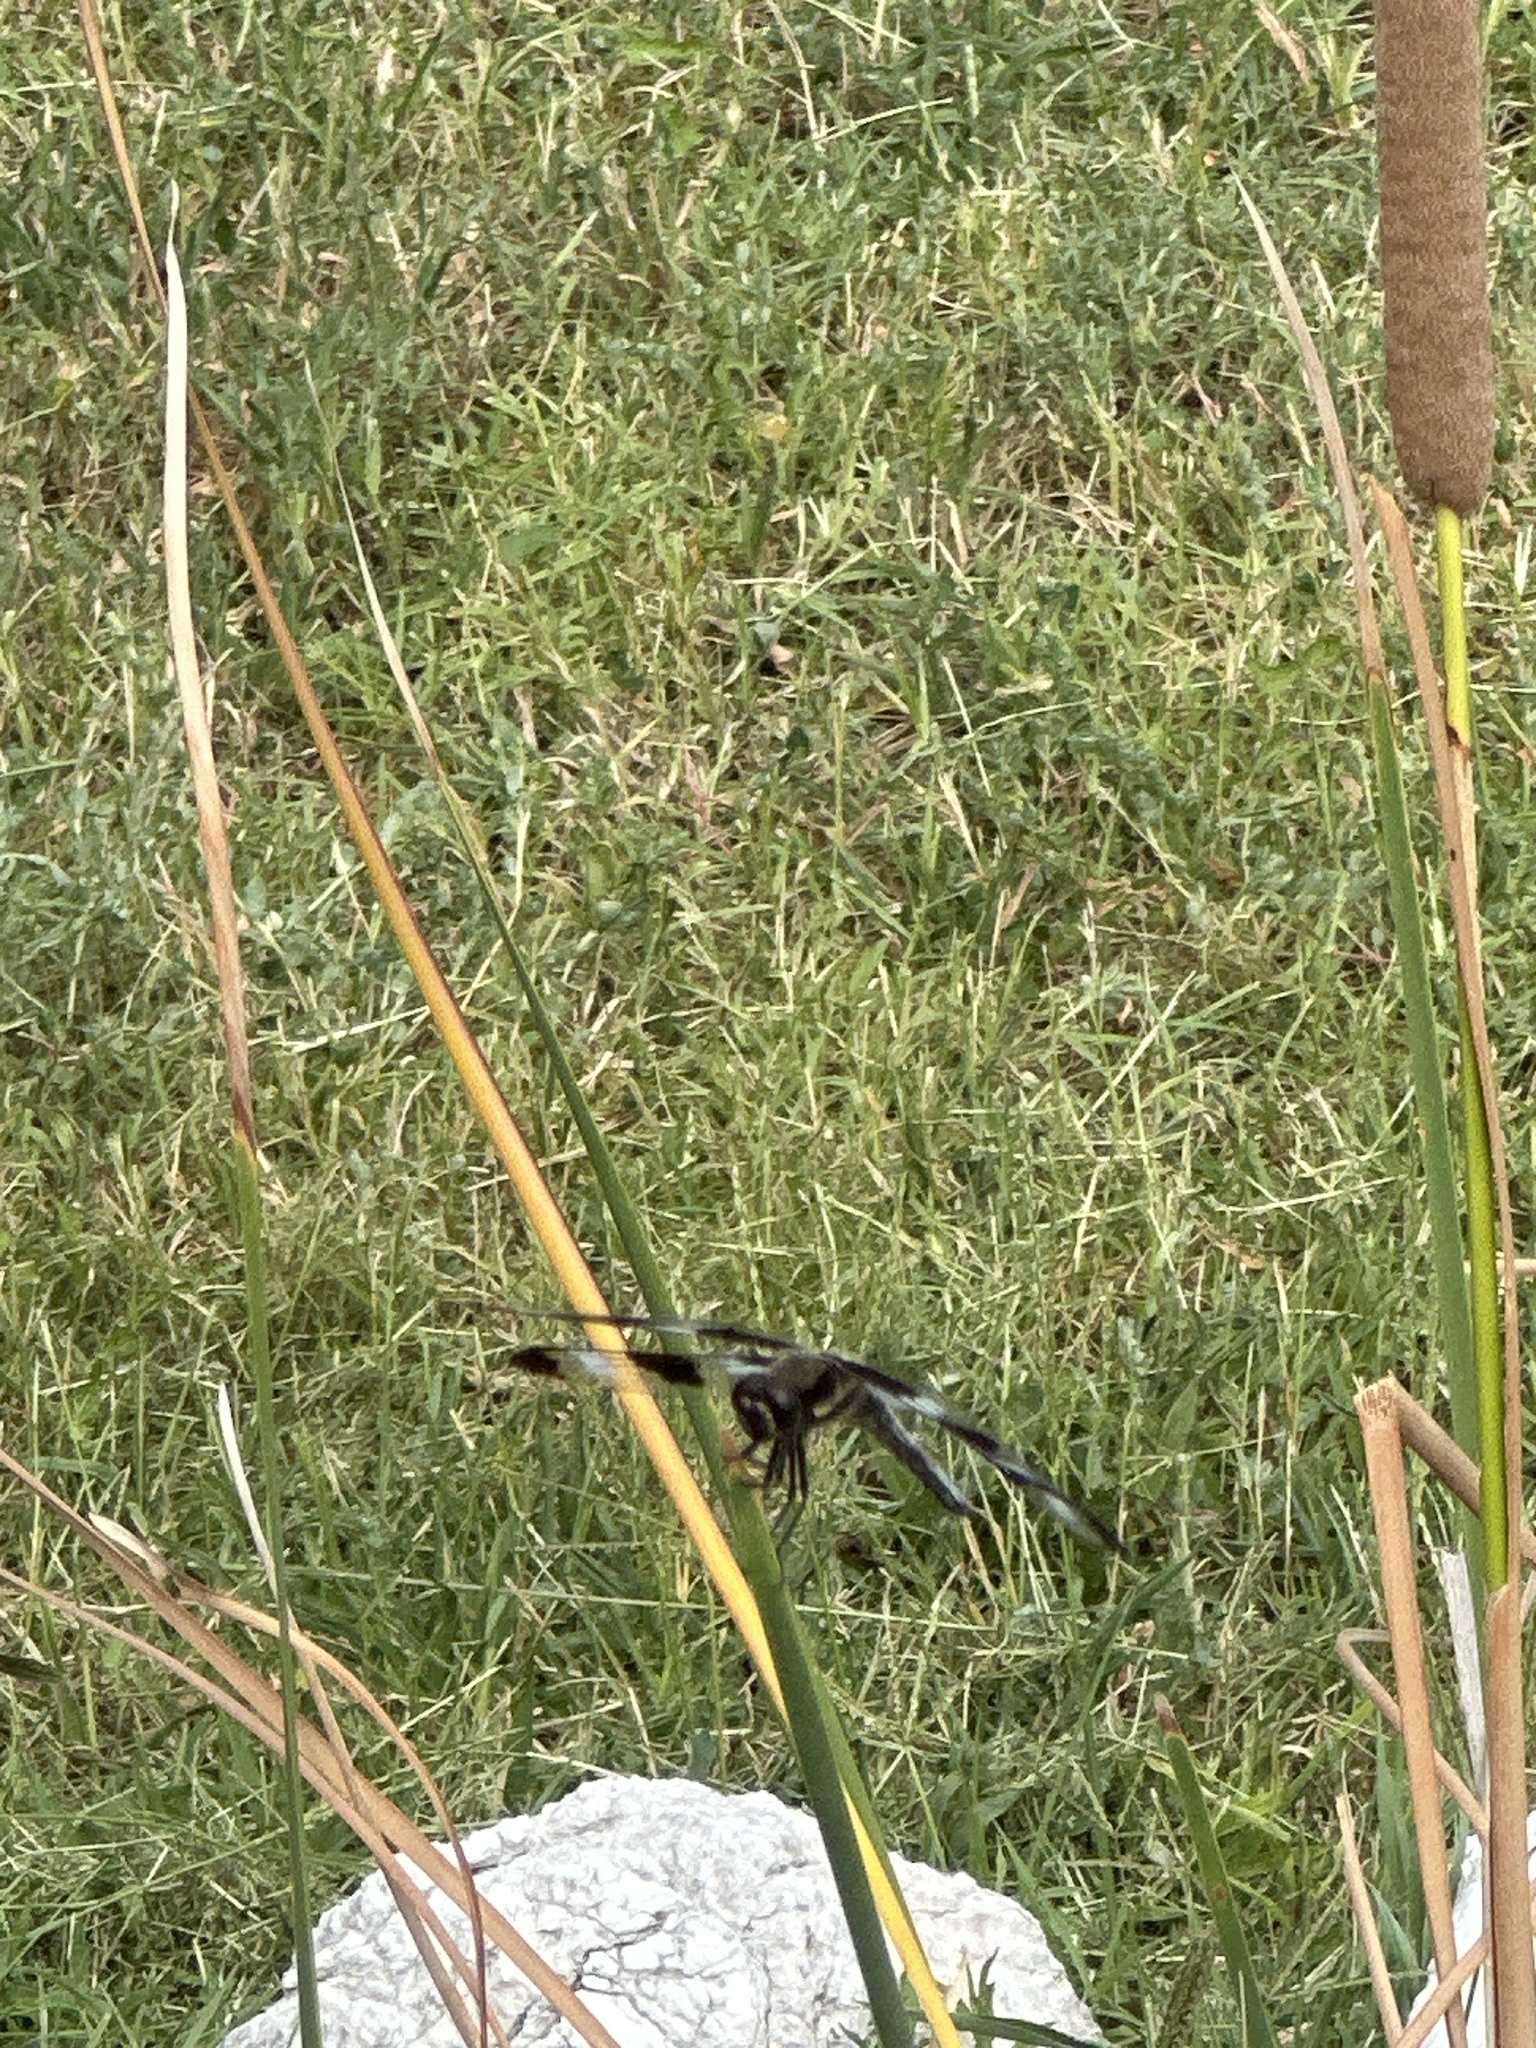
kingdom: Animalia
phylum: Arthropoda
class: Insecta
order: Odonata
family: Libellulidae
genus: Libellula
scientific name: Libellula pulchella
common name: Twelve-spotted skimmer
